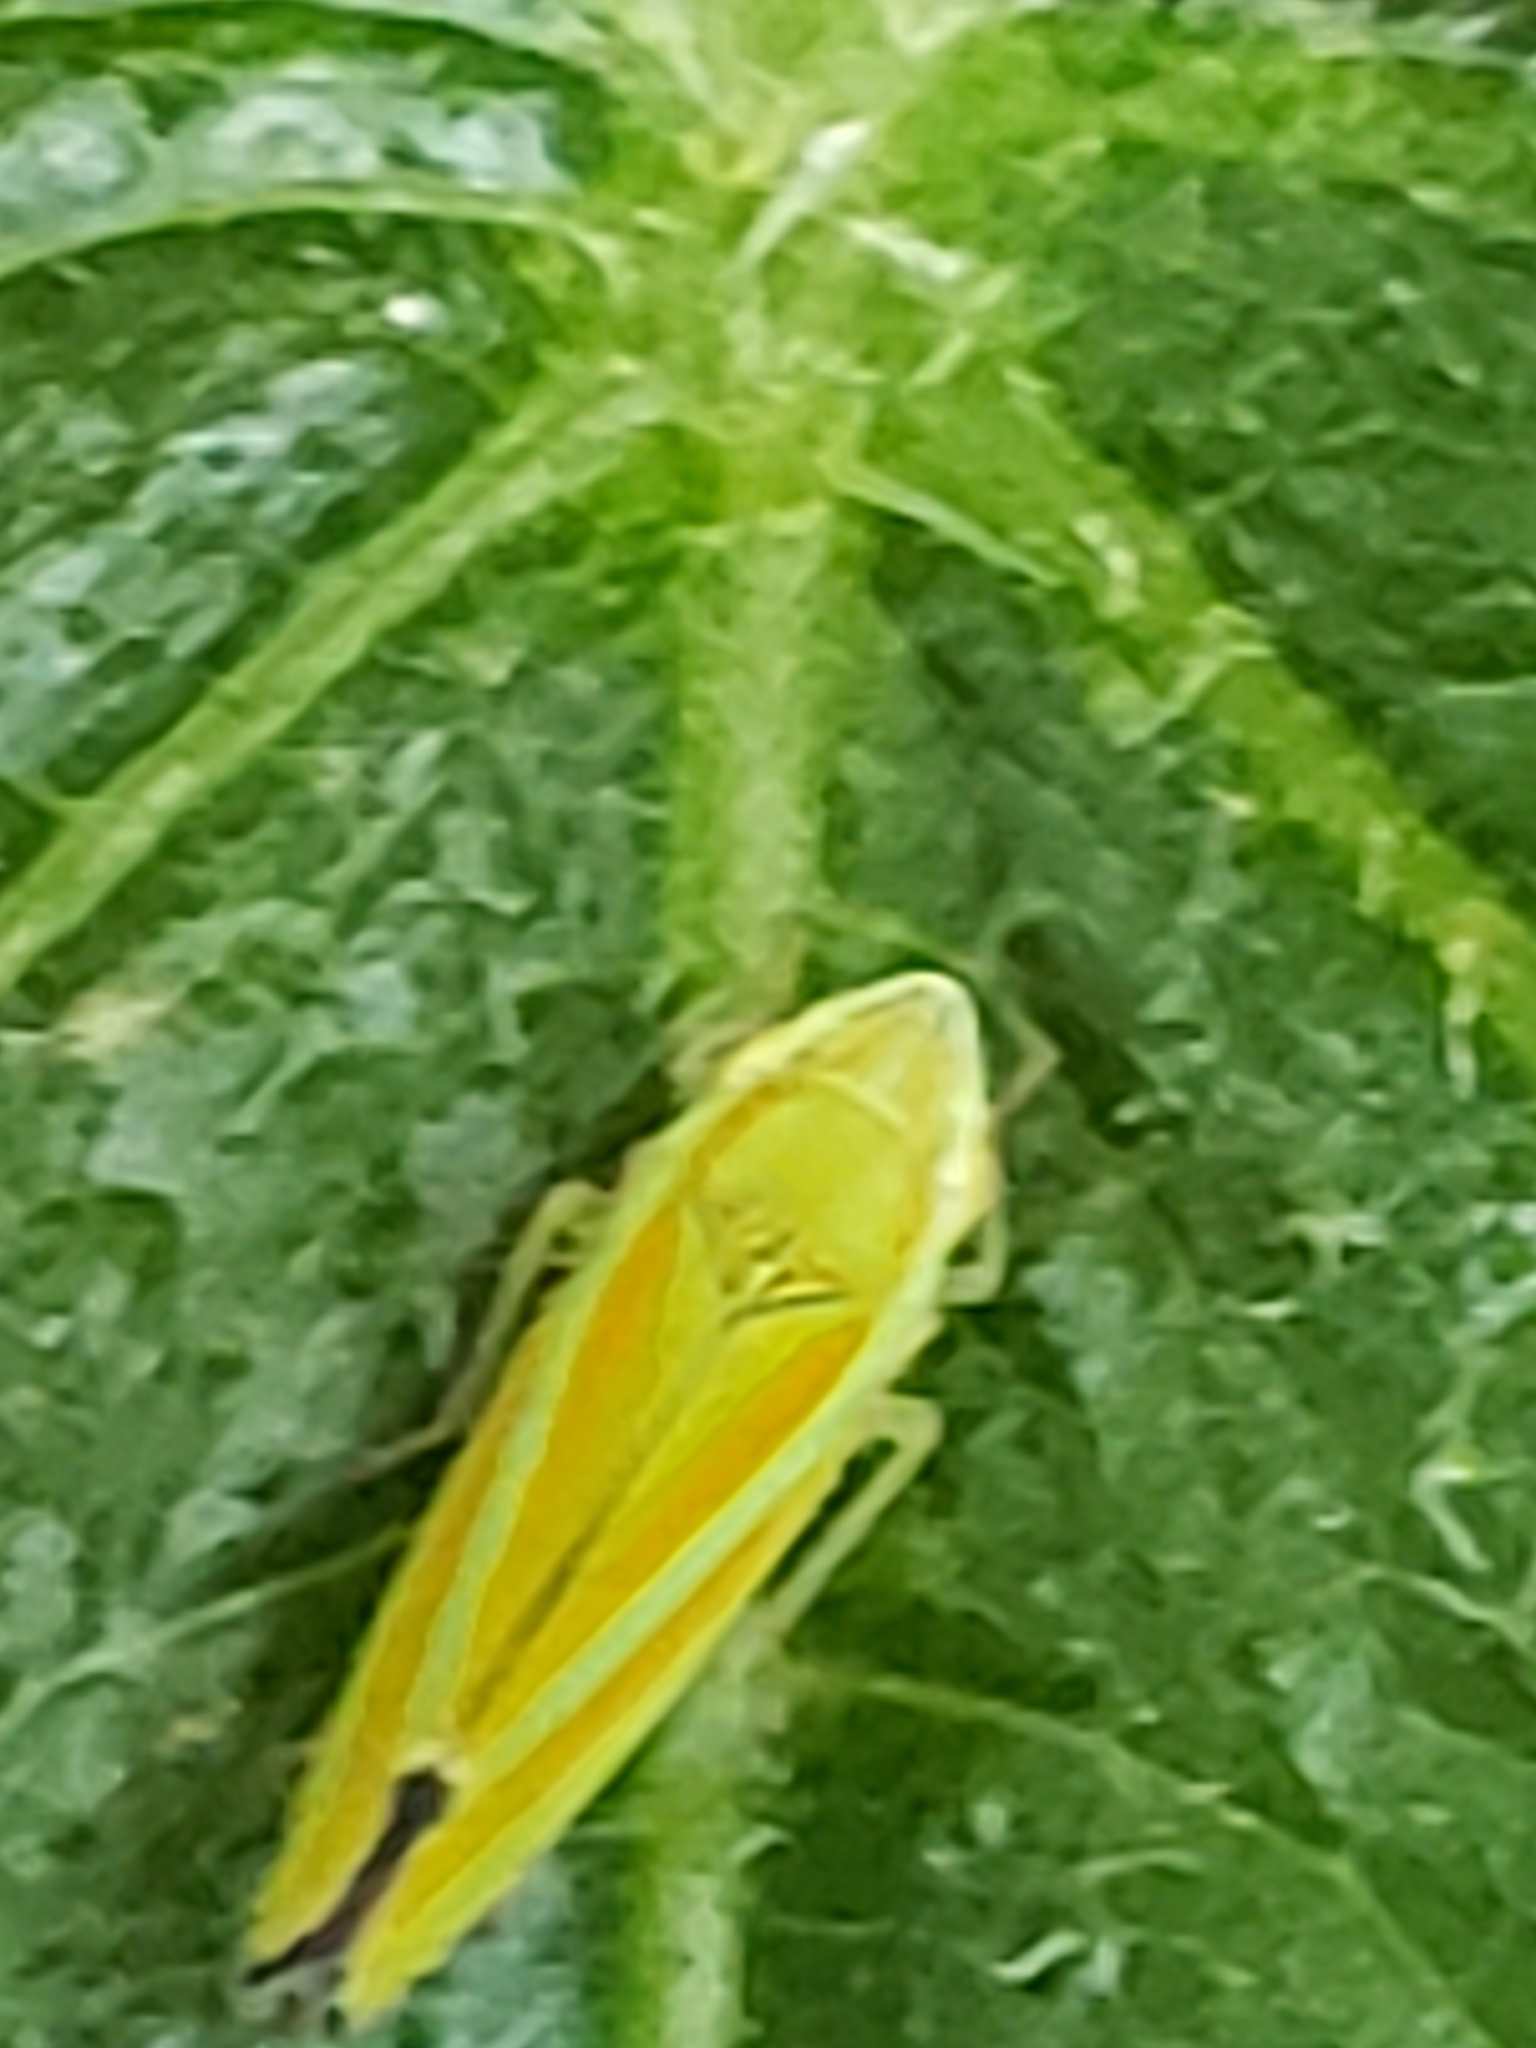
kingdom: Animalia
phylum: Arthropoda
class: Insecta
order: Hemiptera
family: Cicadellidae
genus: Graphocephala
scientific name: Graphocephala versuta
